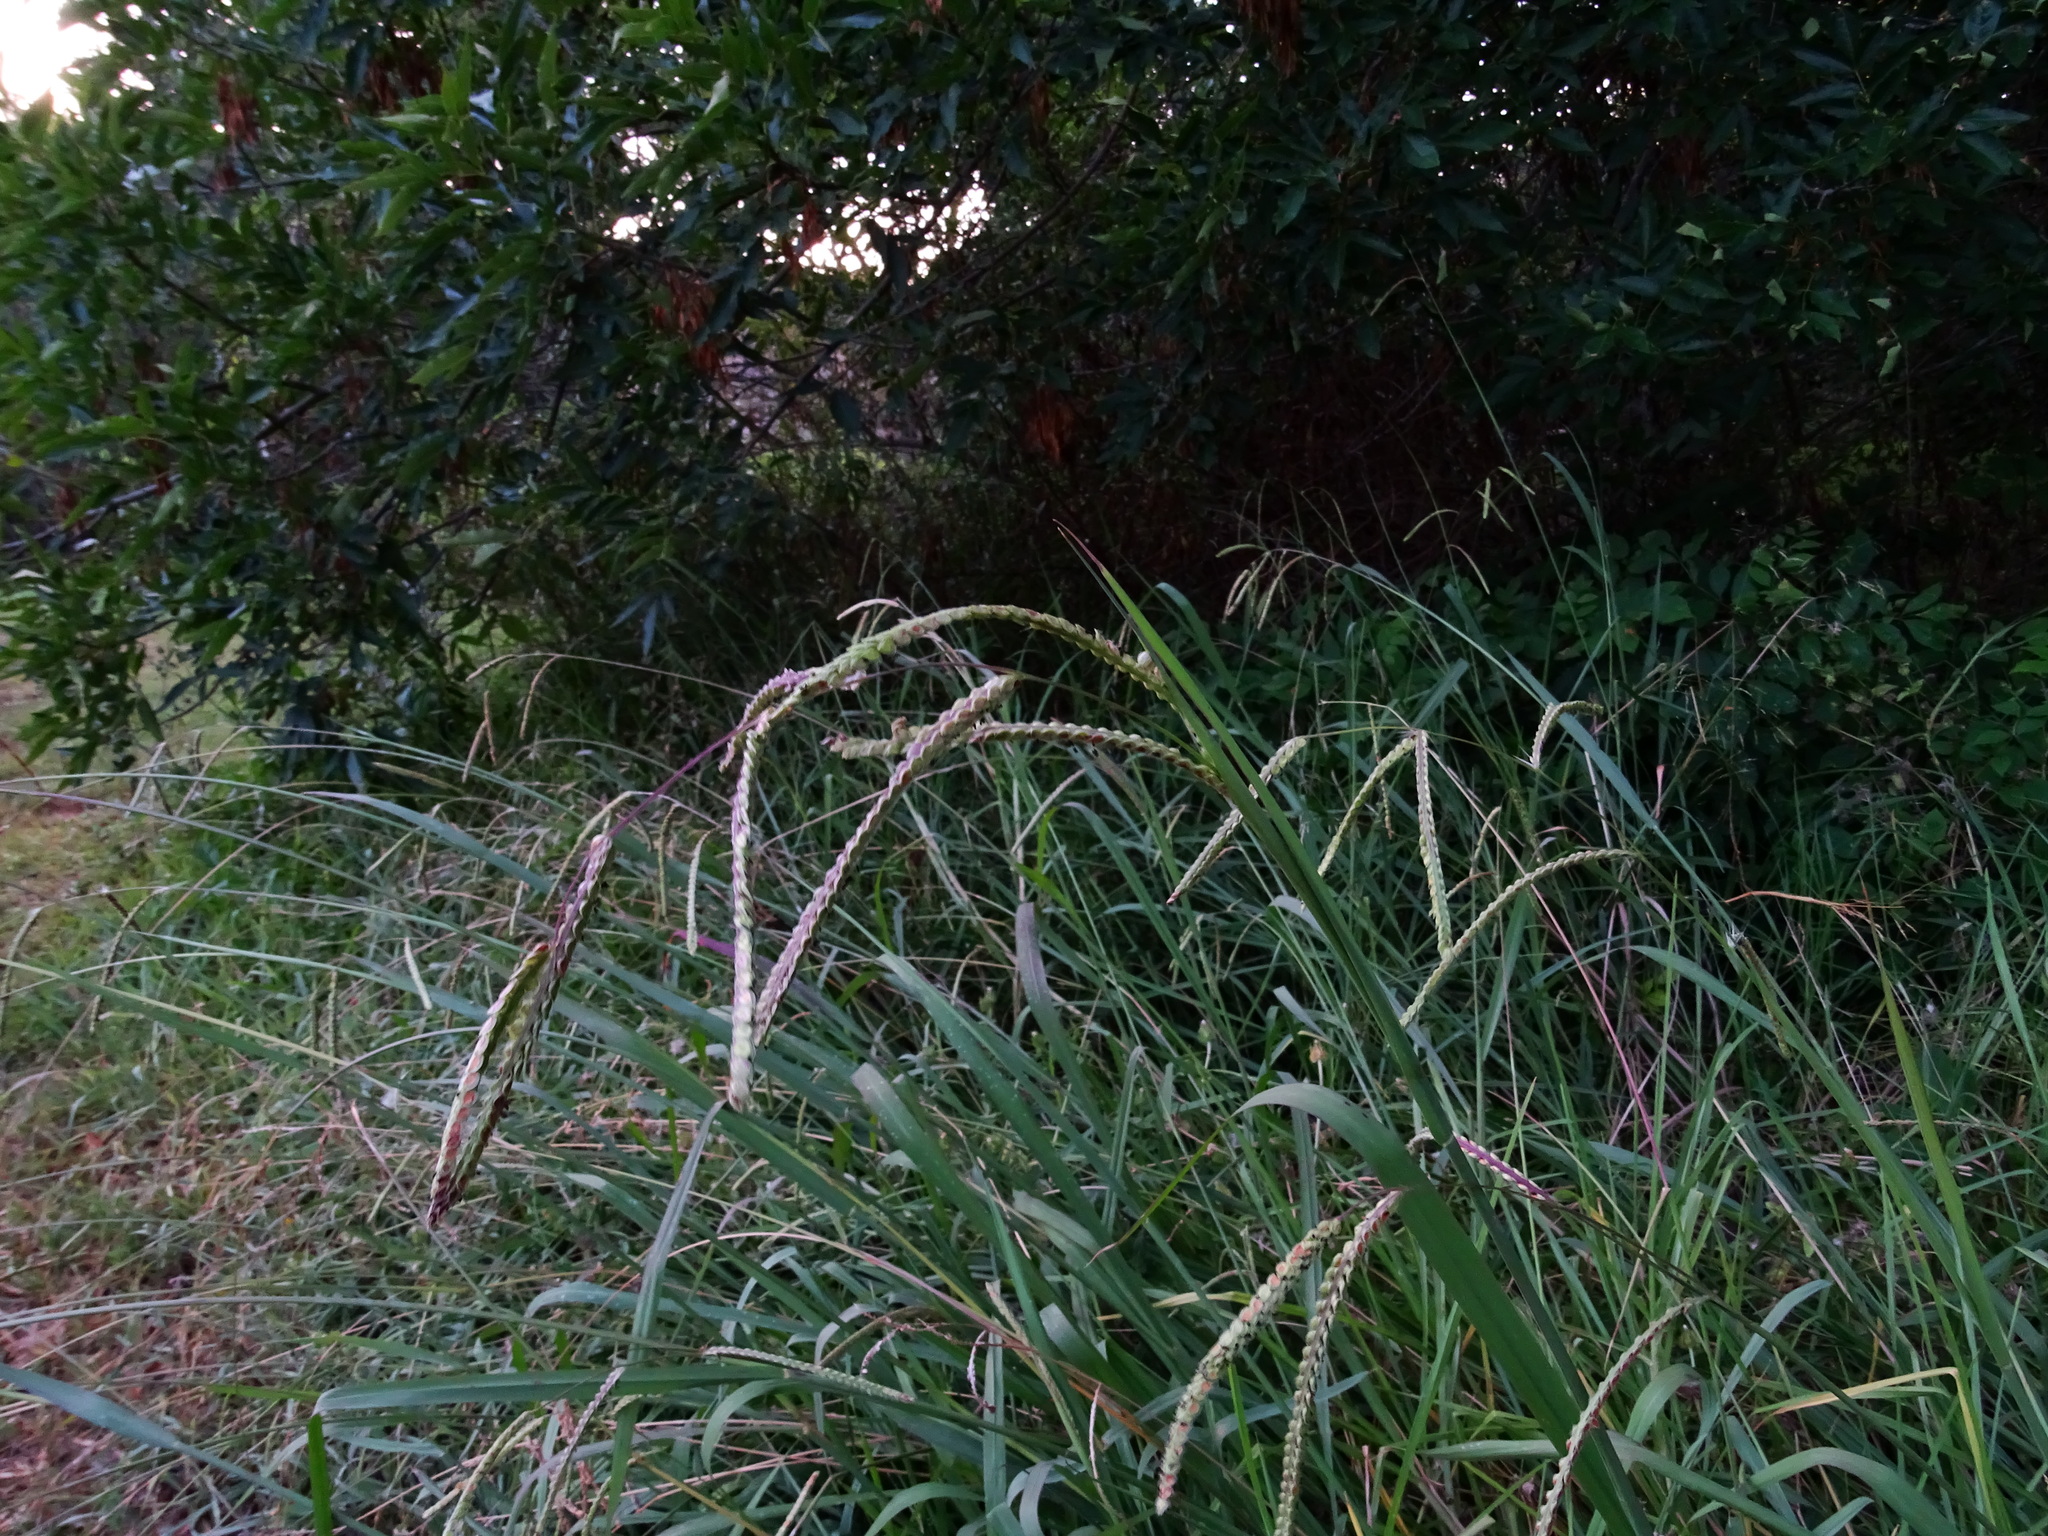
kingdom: Plantae
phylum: Tracheophyta
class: Liliopsida
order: Poales
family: Poaceae
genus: Paspalum
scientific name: Paspalum dilatatum
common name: Dallisgrass
